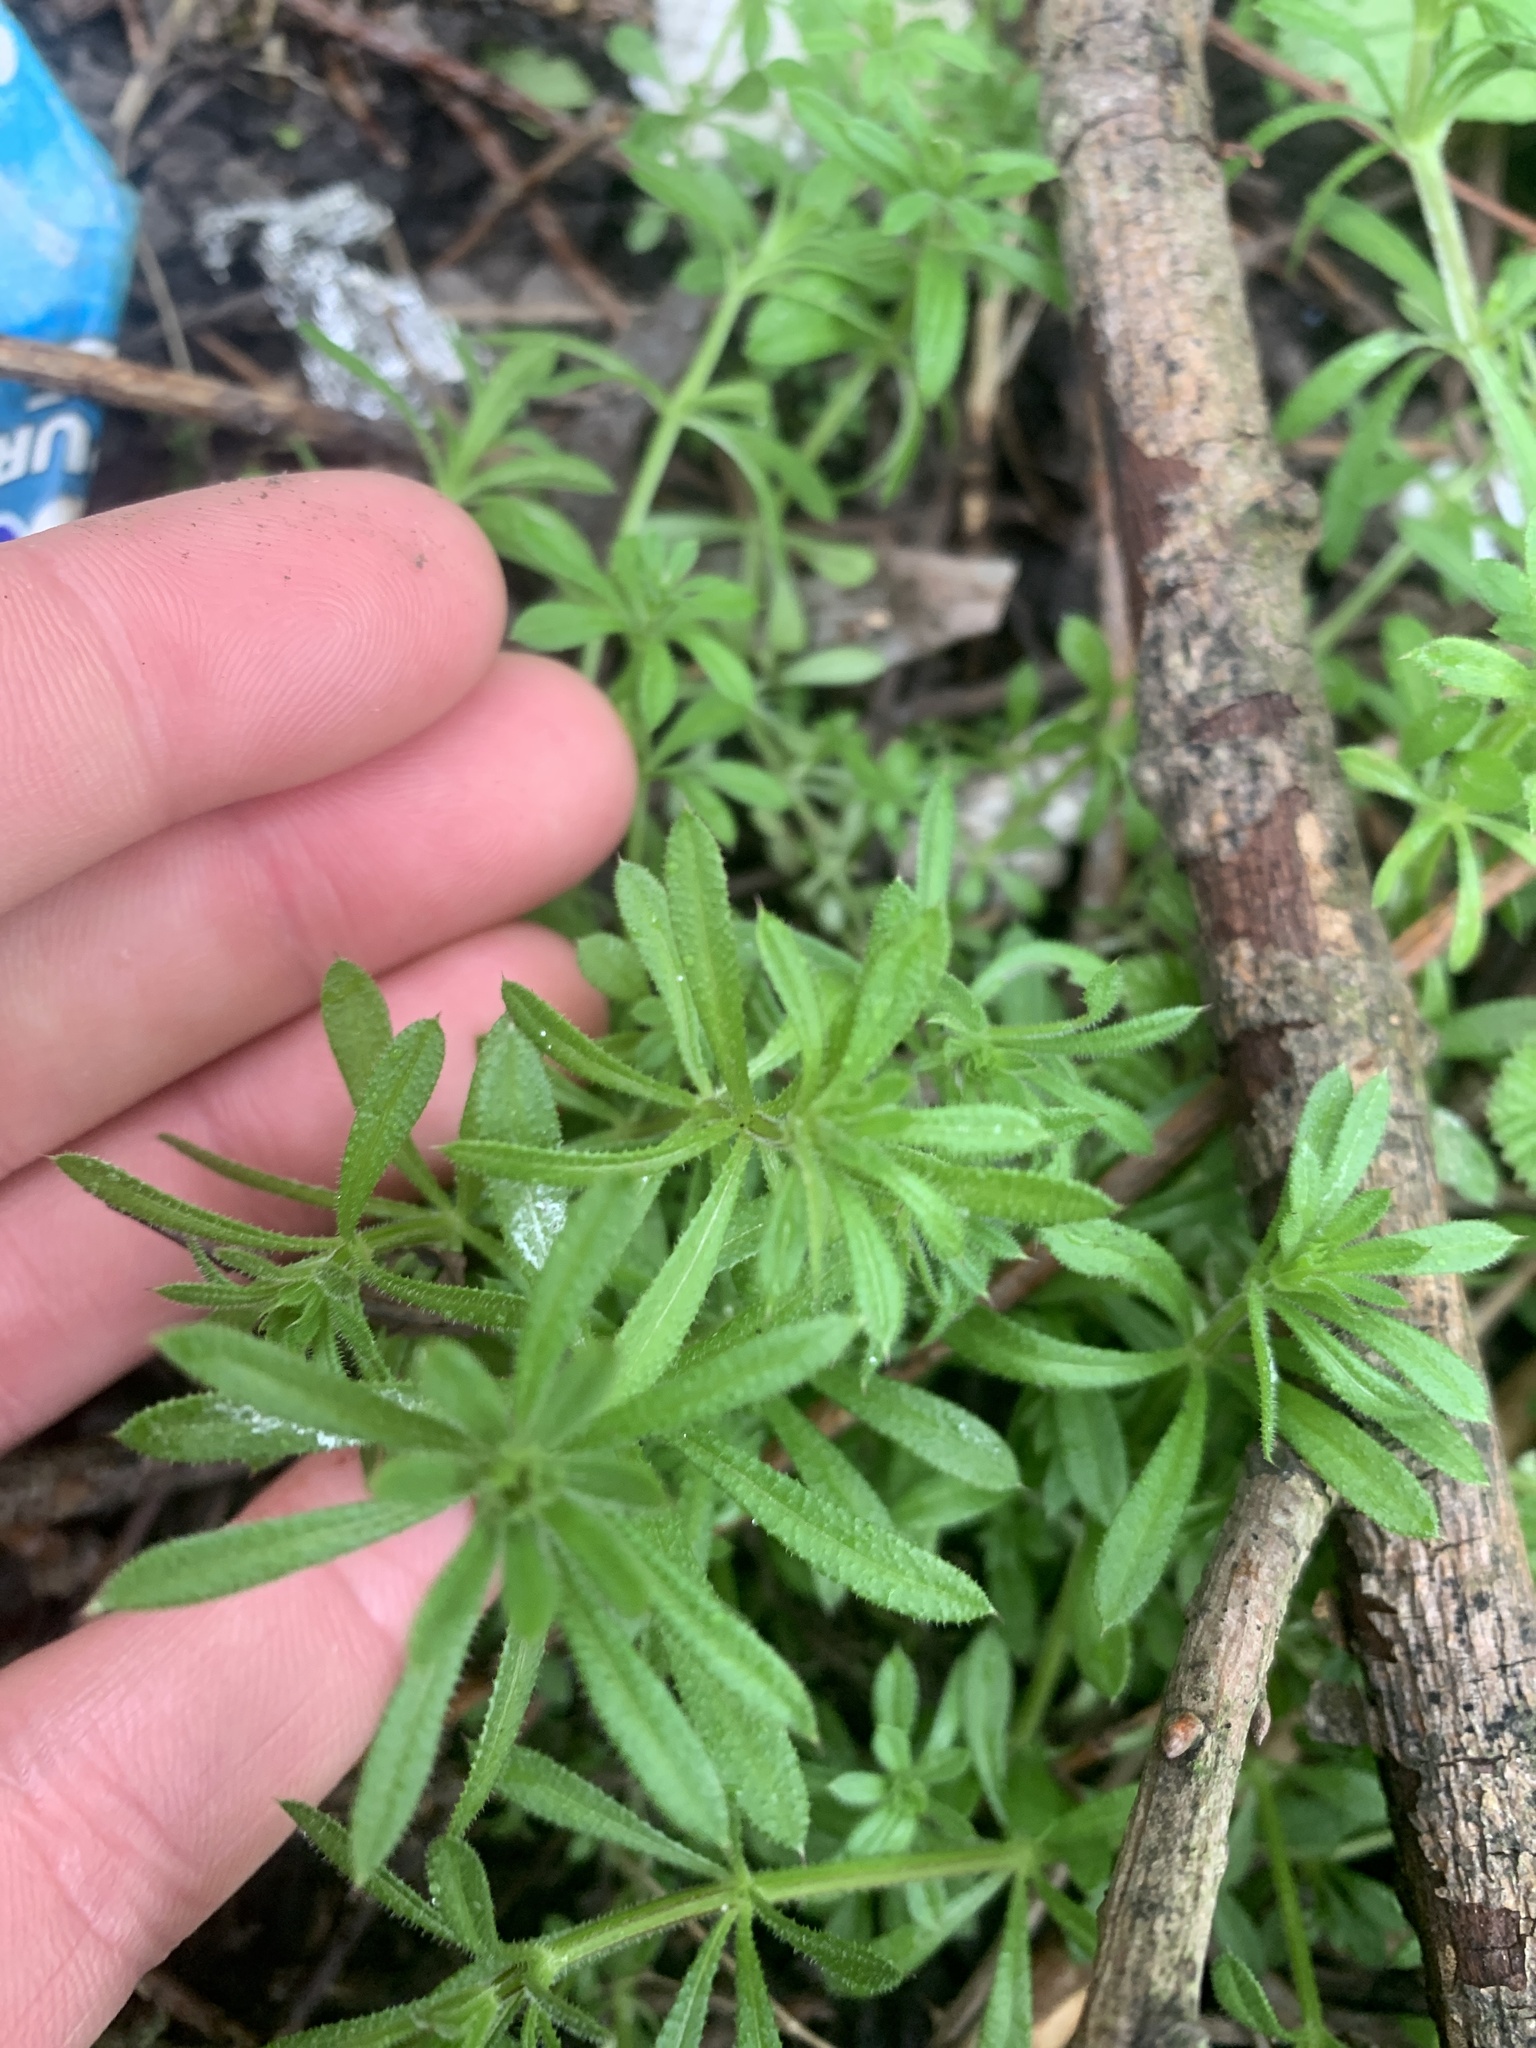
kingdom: Plantae
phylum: Tracheophyta
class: Magnoliopsida
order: Gentianales
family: Rubiaceae
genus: Galium
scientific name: Galium aparine
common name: Cleavers
